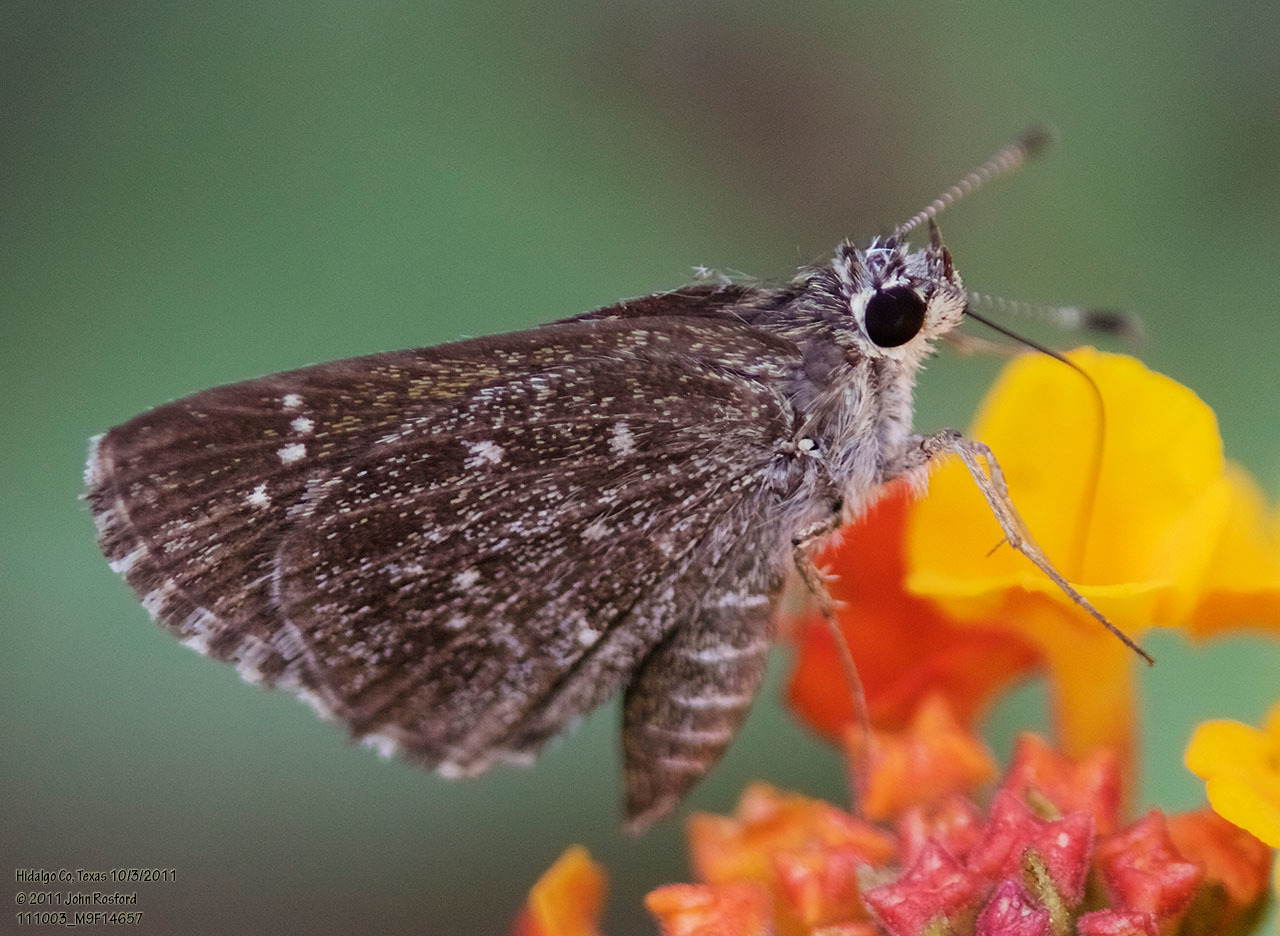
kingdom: Animalia
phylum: Arthropoda
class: Insecta
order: Lepidoptera
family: Hesperiidae
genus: Mastor
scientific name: Mastor celia
